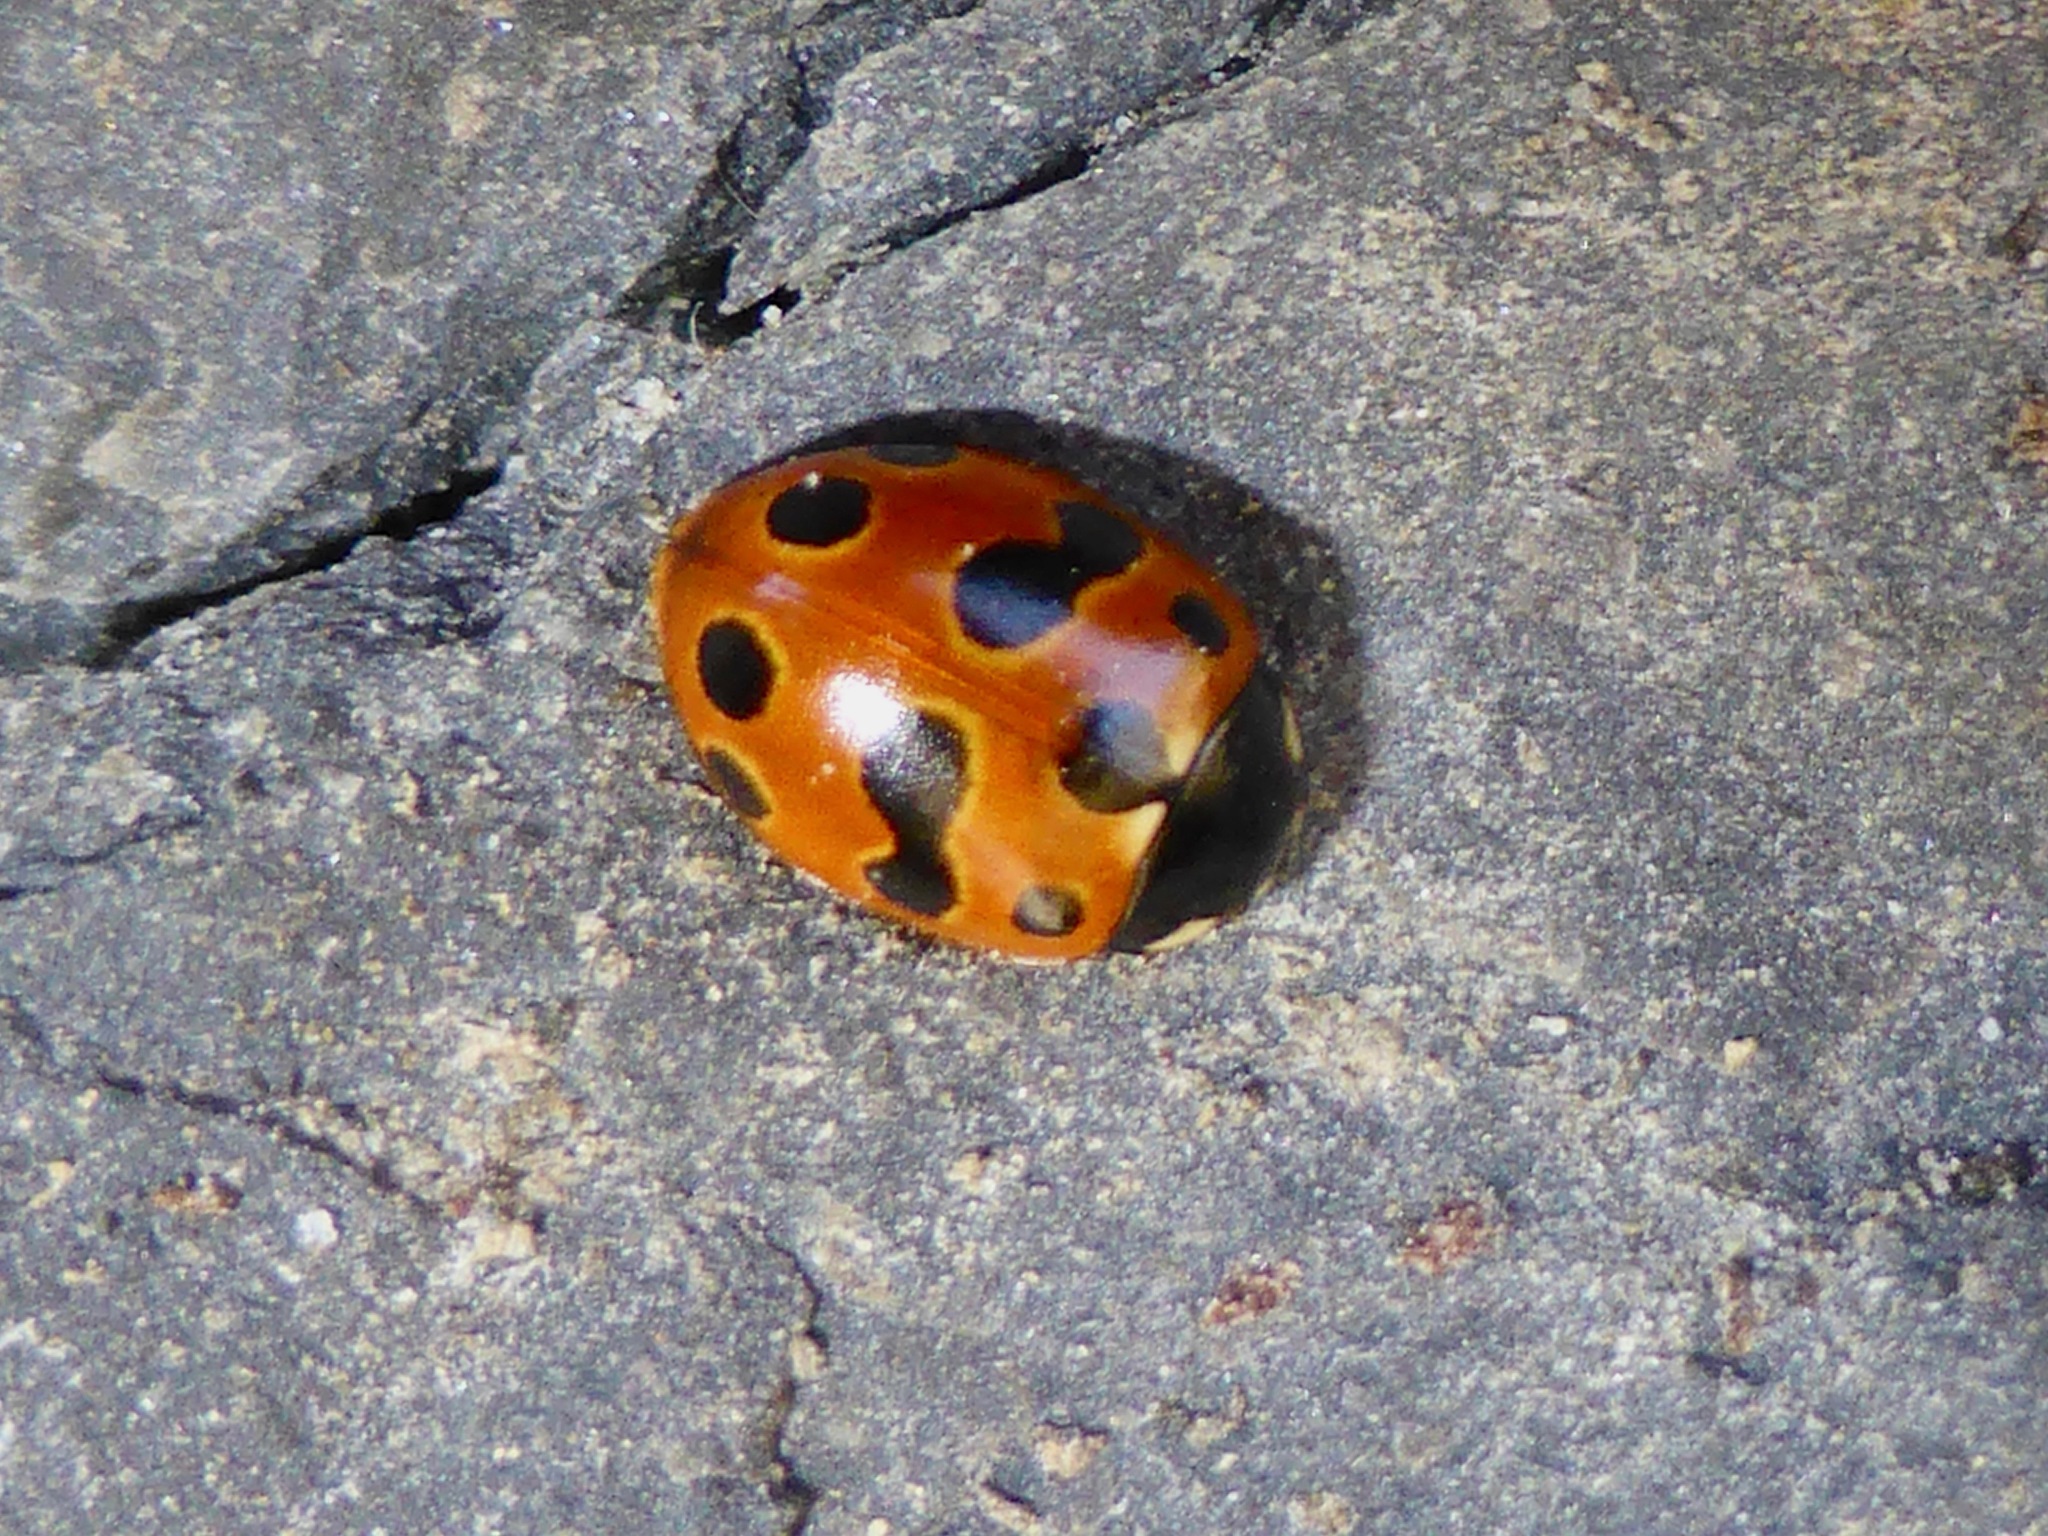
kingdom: Animalia
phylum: Arthropoda
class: Insecta
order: Coleoptera
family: Coccinellidae
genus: Coccinella
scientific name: Coccinella undecimpunctata
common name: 11-spot ladybird
